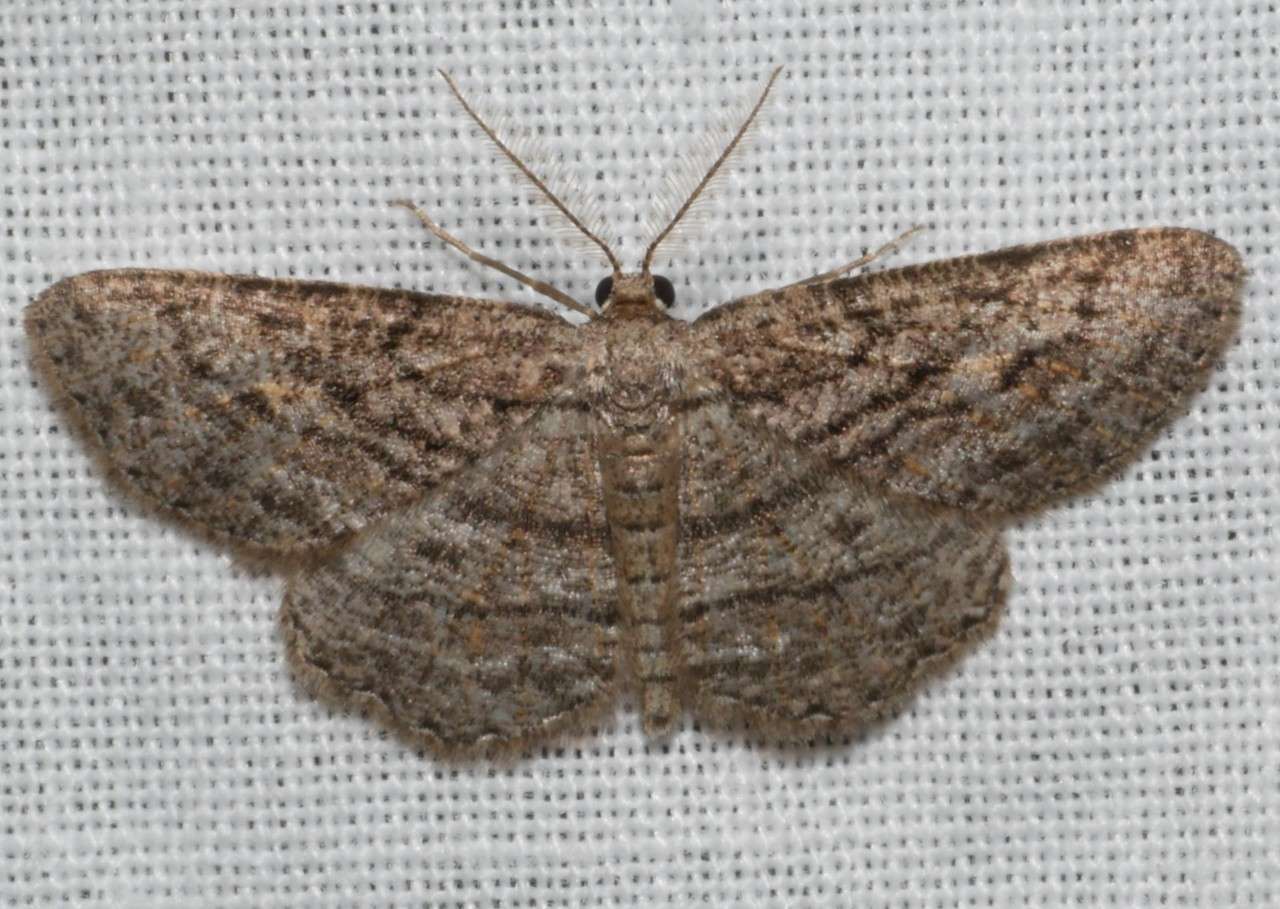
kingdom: Animalia
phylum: Arthropoda
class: Insecta
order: Lepidoptera
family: Geometridae
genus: Zermizinga
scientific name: Zermizinga sinuata
